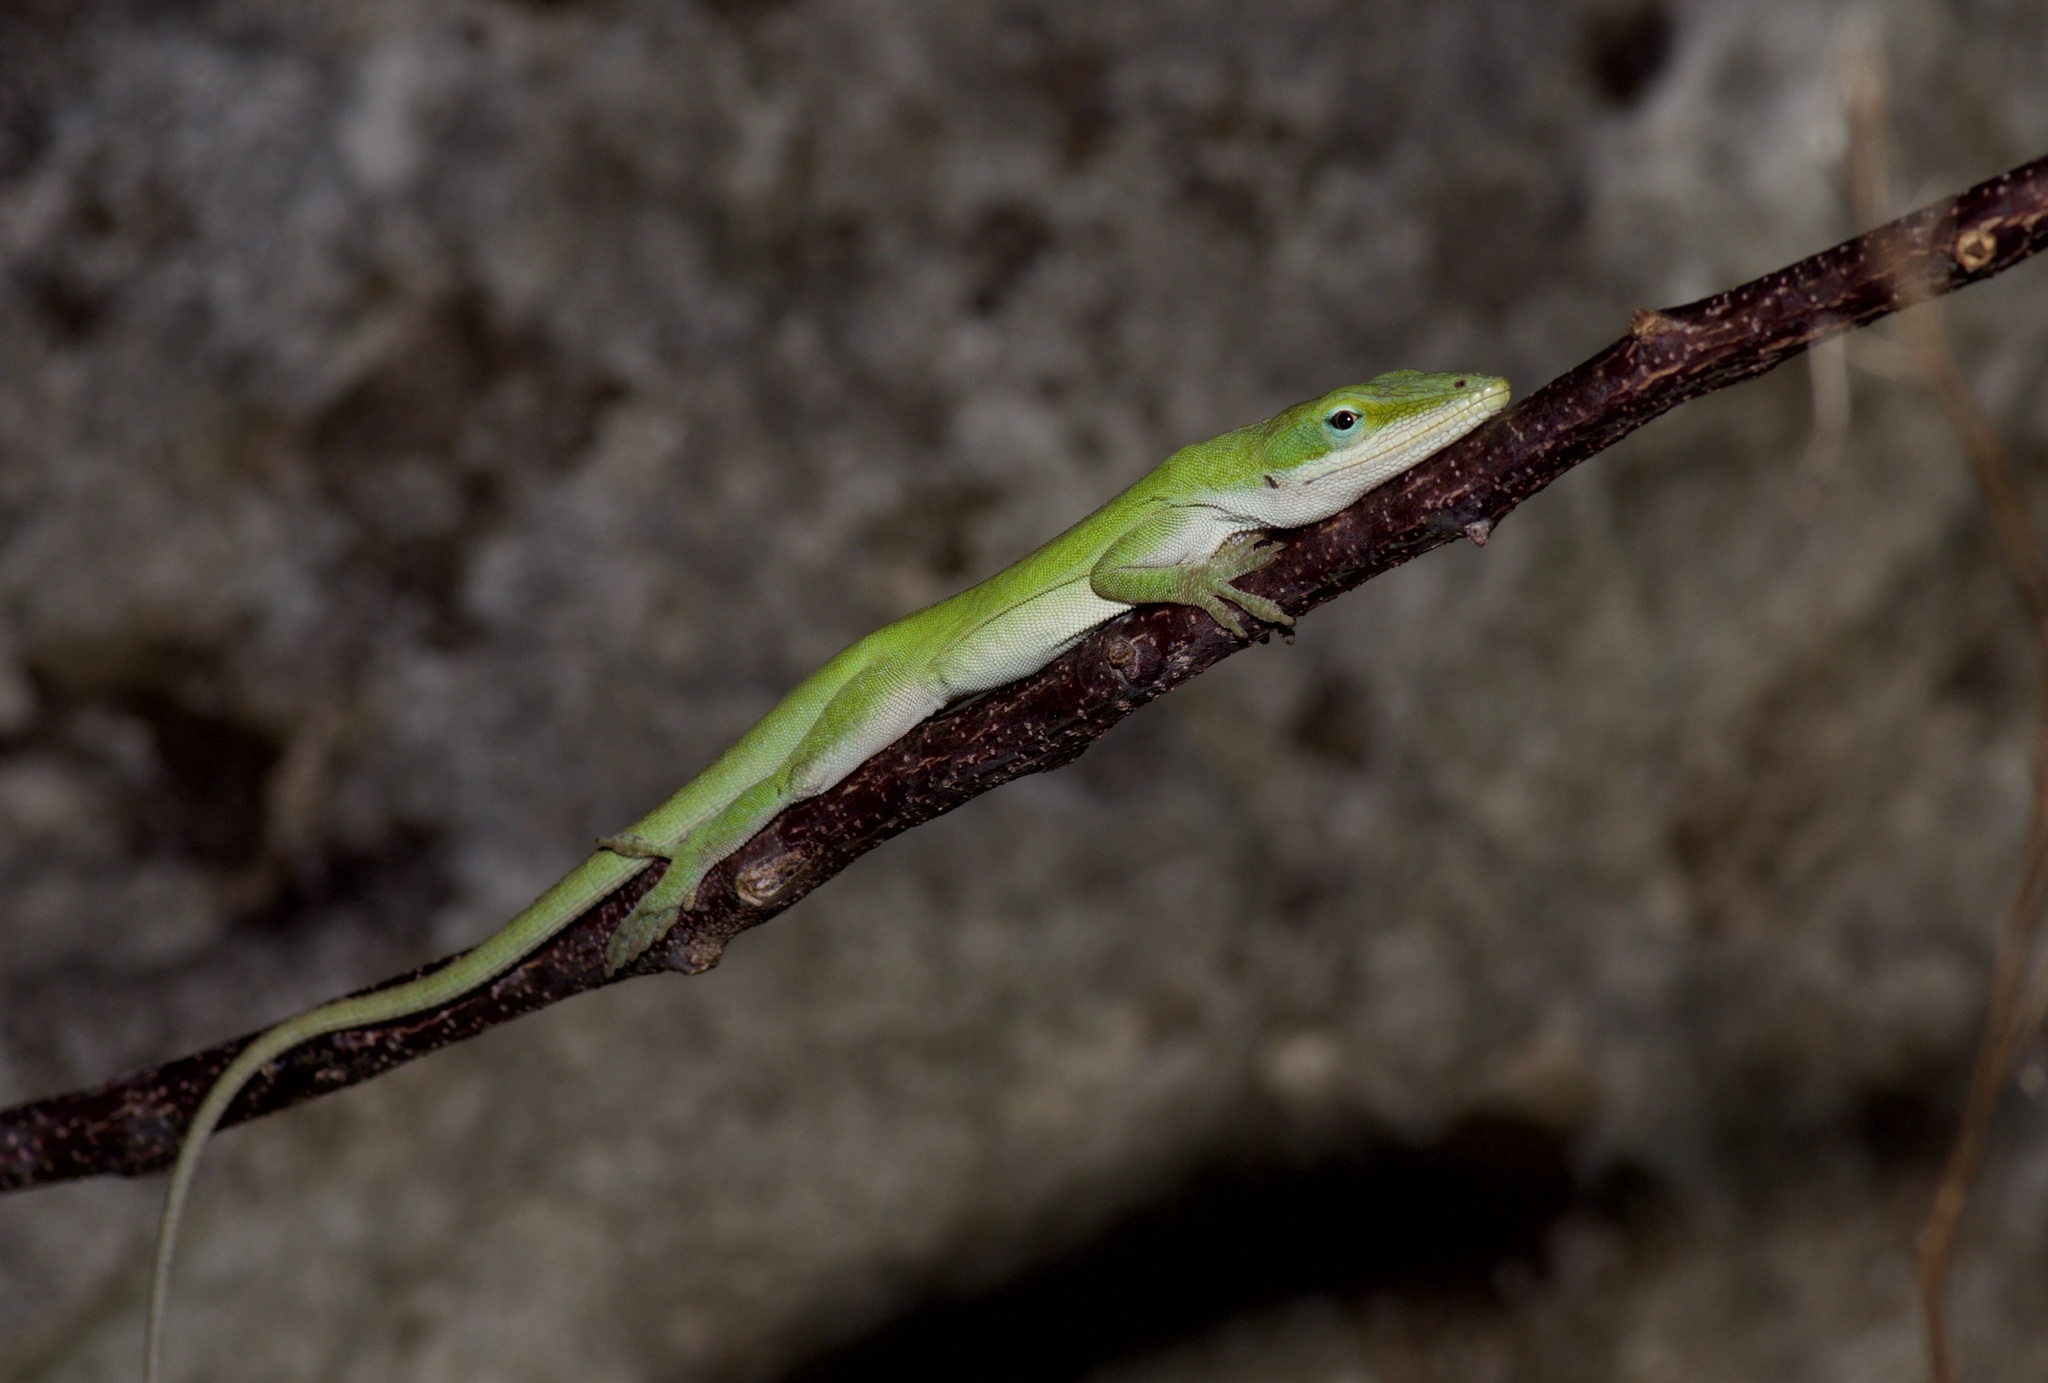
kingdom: Animalia
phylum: Chordata
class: Squamata
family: Dactyloidae
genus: Anolis
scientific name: Anolis carolinensis
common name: Green anole
